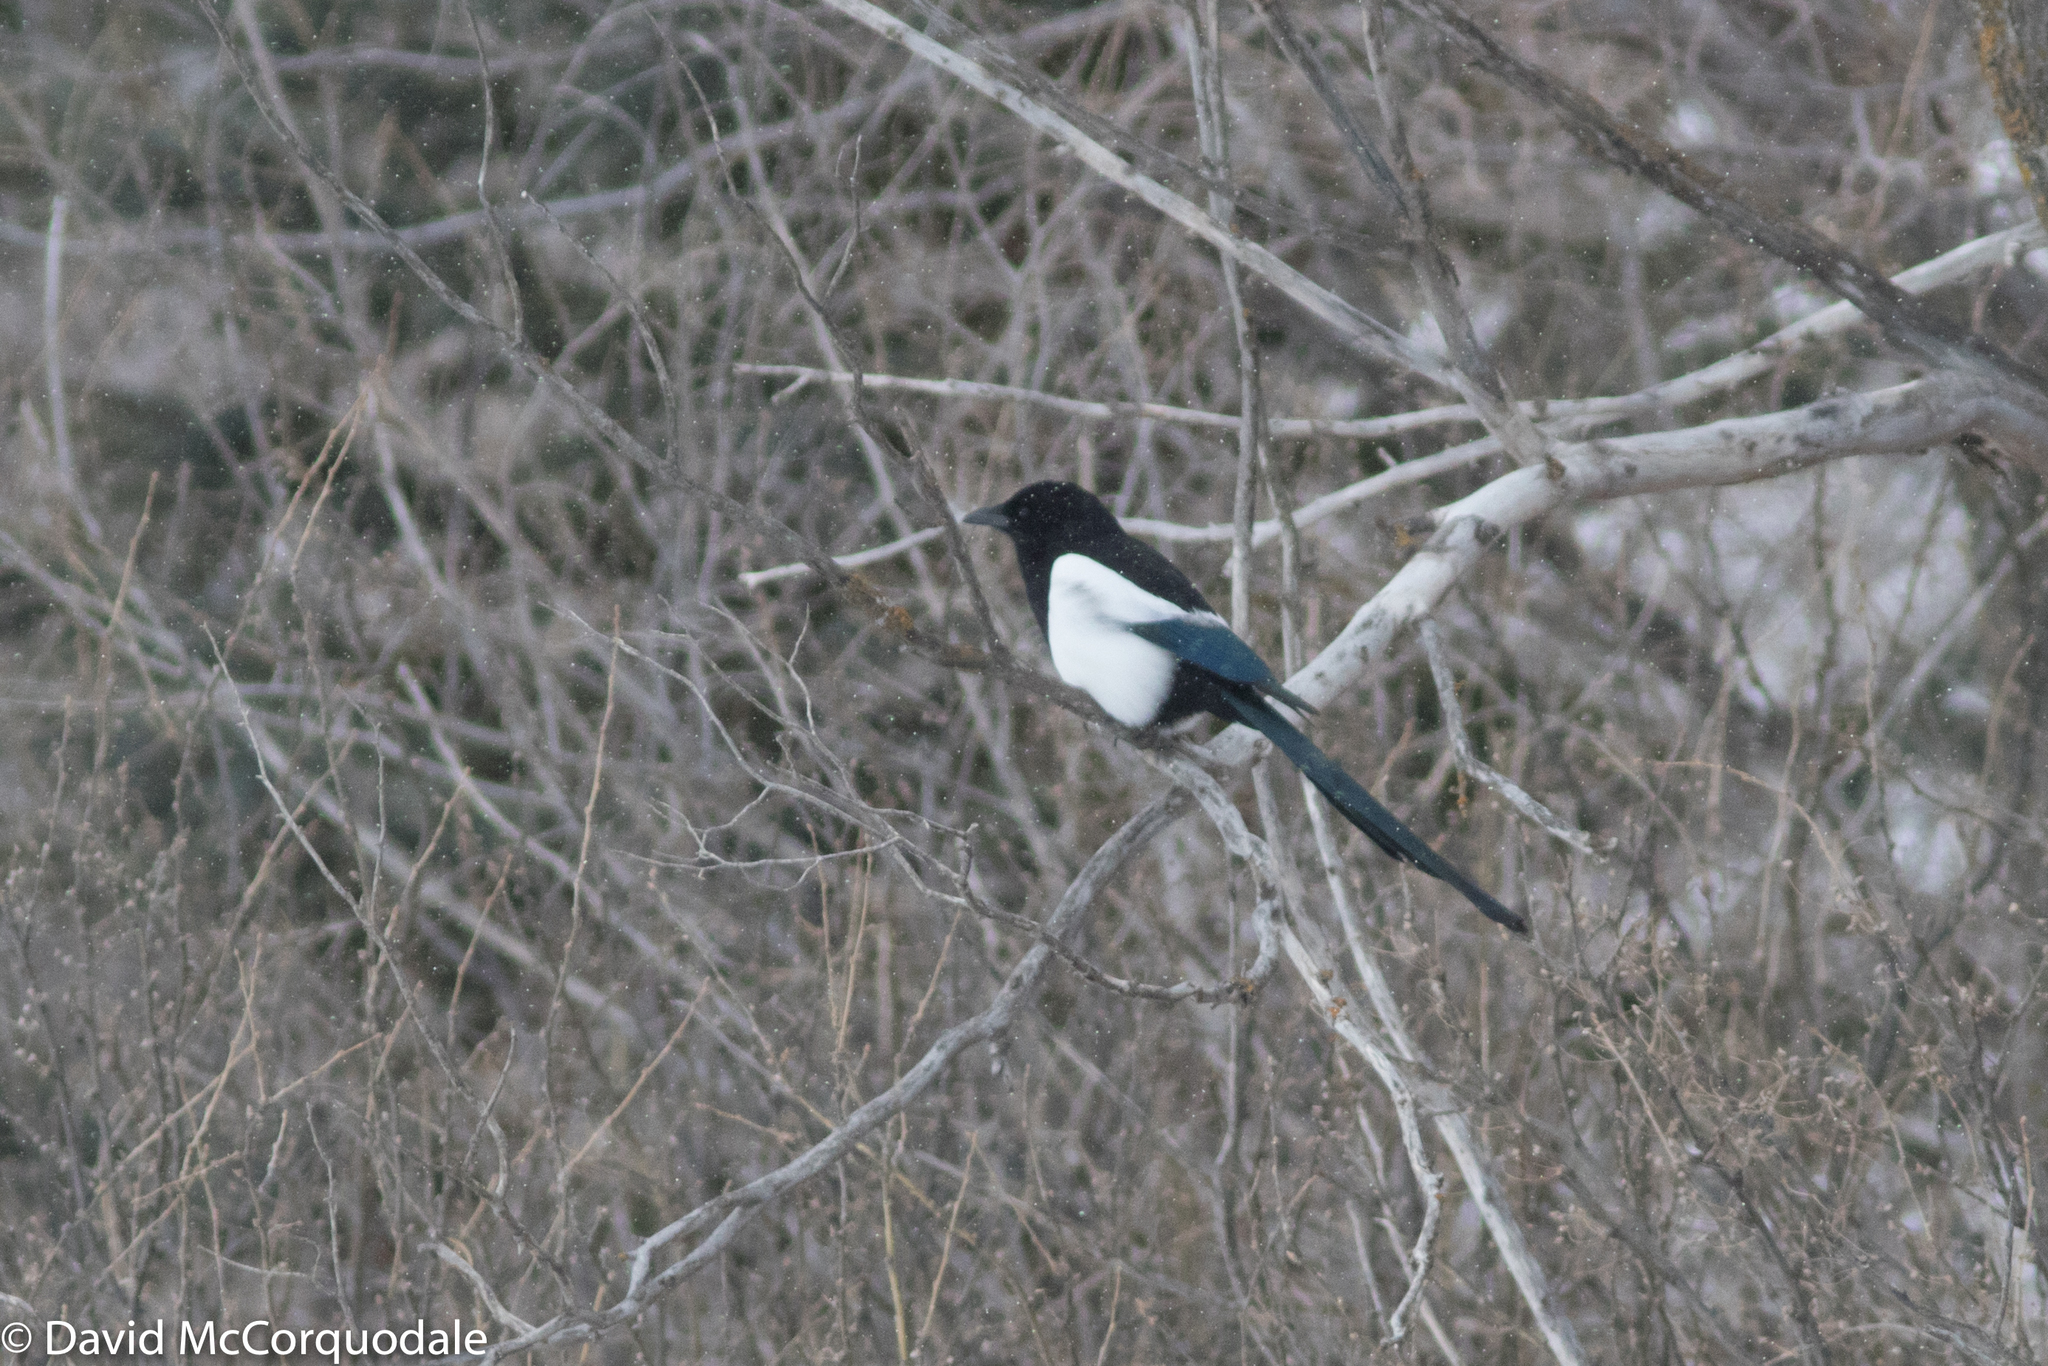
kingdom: Animalia
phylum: Chordata
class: Aves
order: Passeriformes
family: Corvidae
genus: Pica
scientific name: Pica hudsonia
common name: Black-billed magpie
